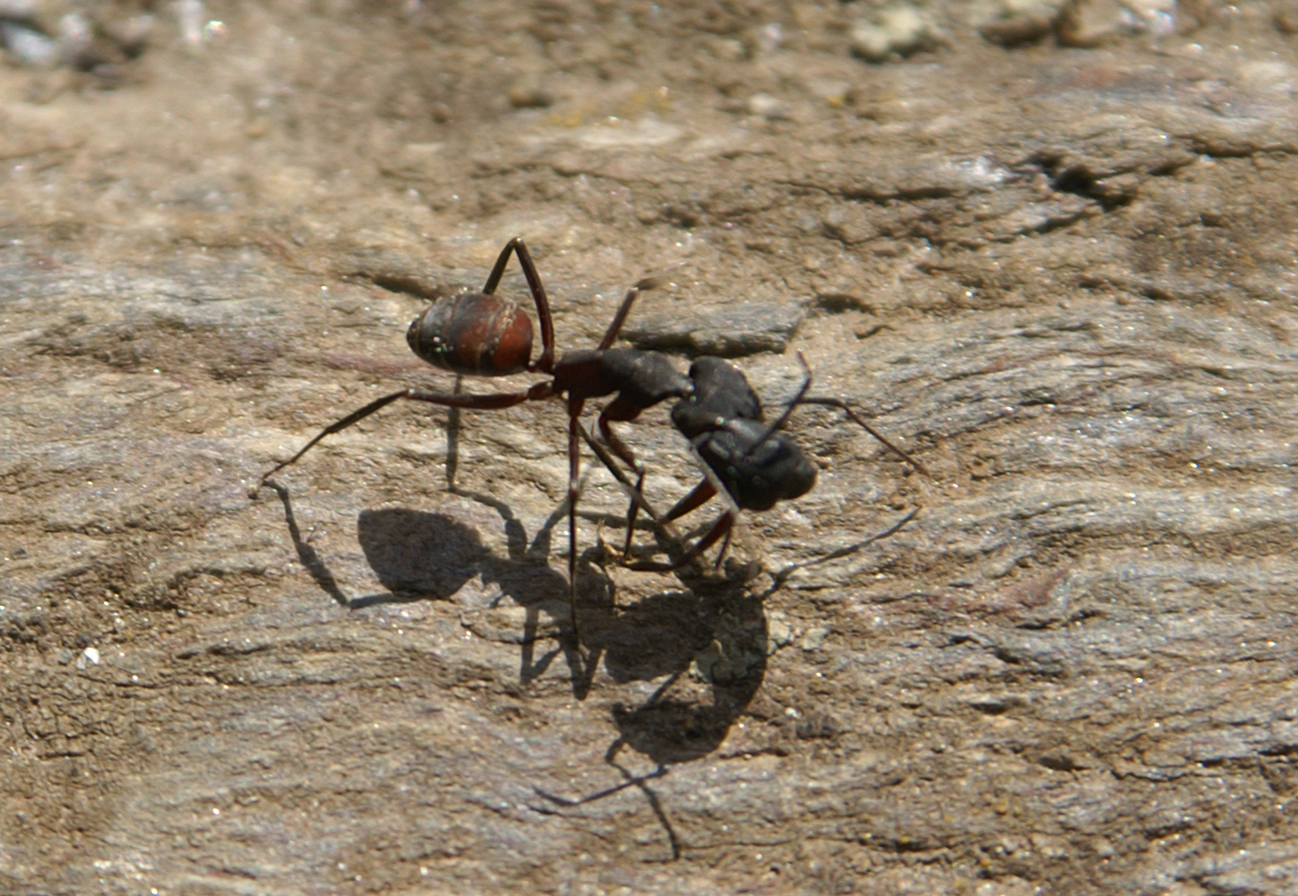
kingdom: Animalia
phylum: Arthropoda
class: Insecta
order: Hymenoptera
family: Formicidae
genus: Camponotus
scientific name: Camponotus cruentatus
